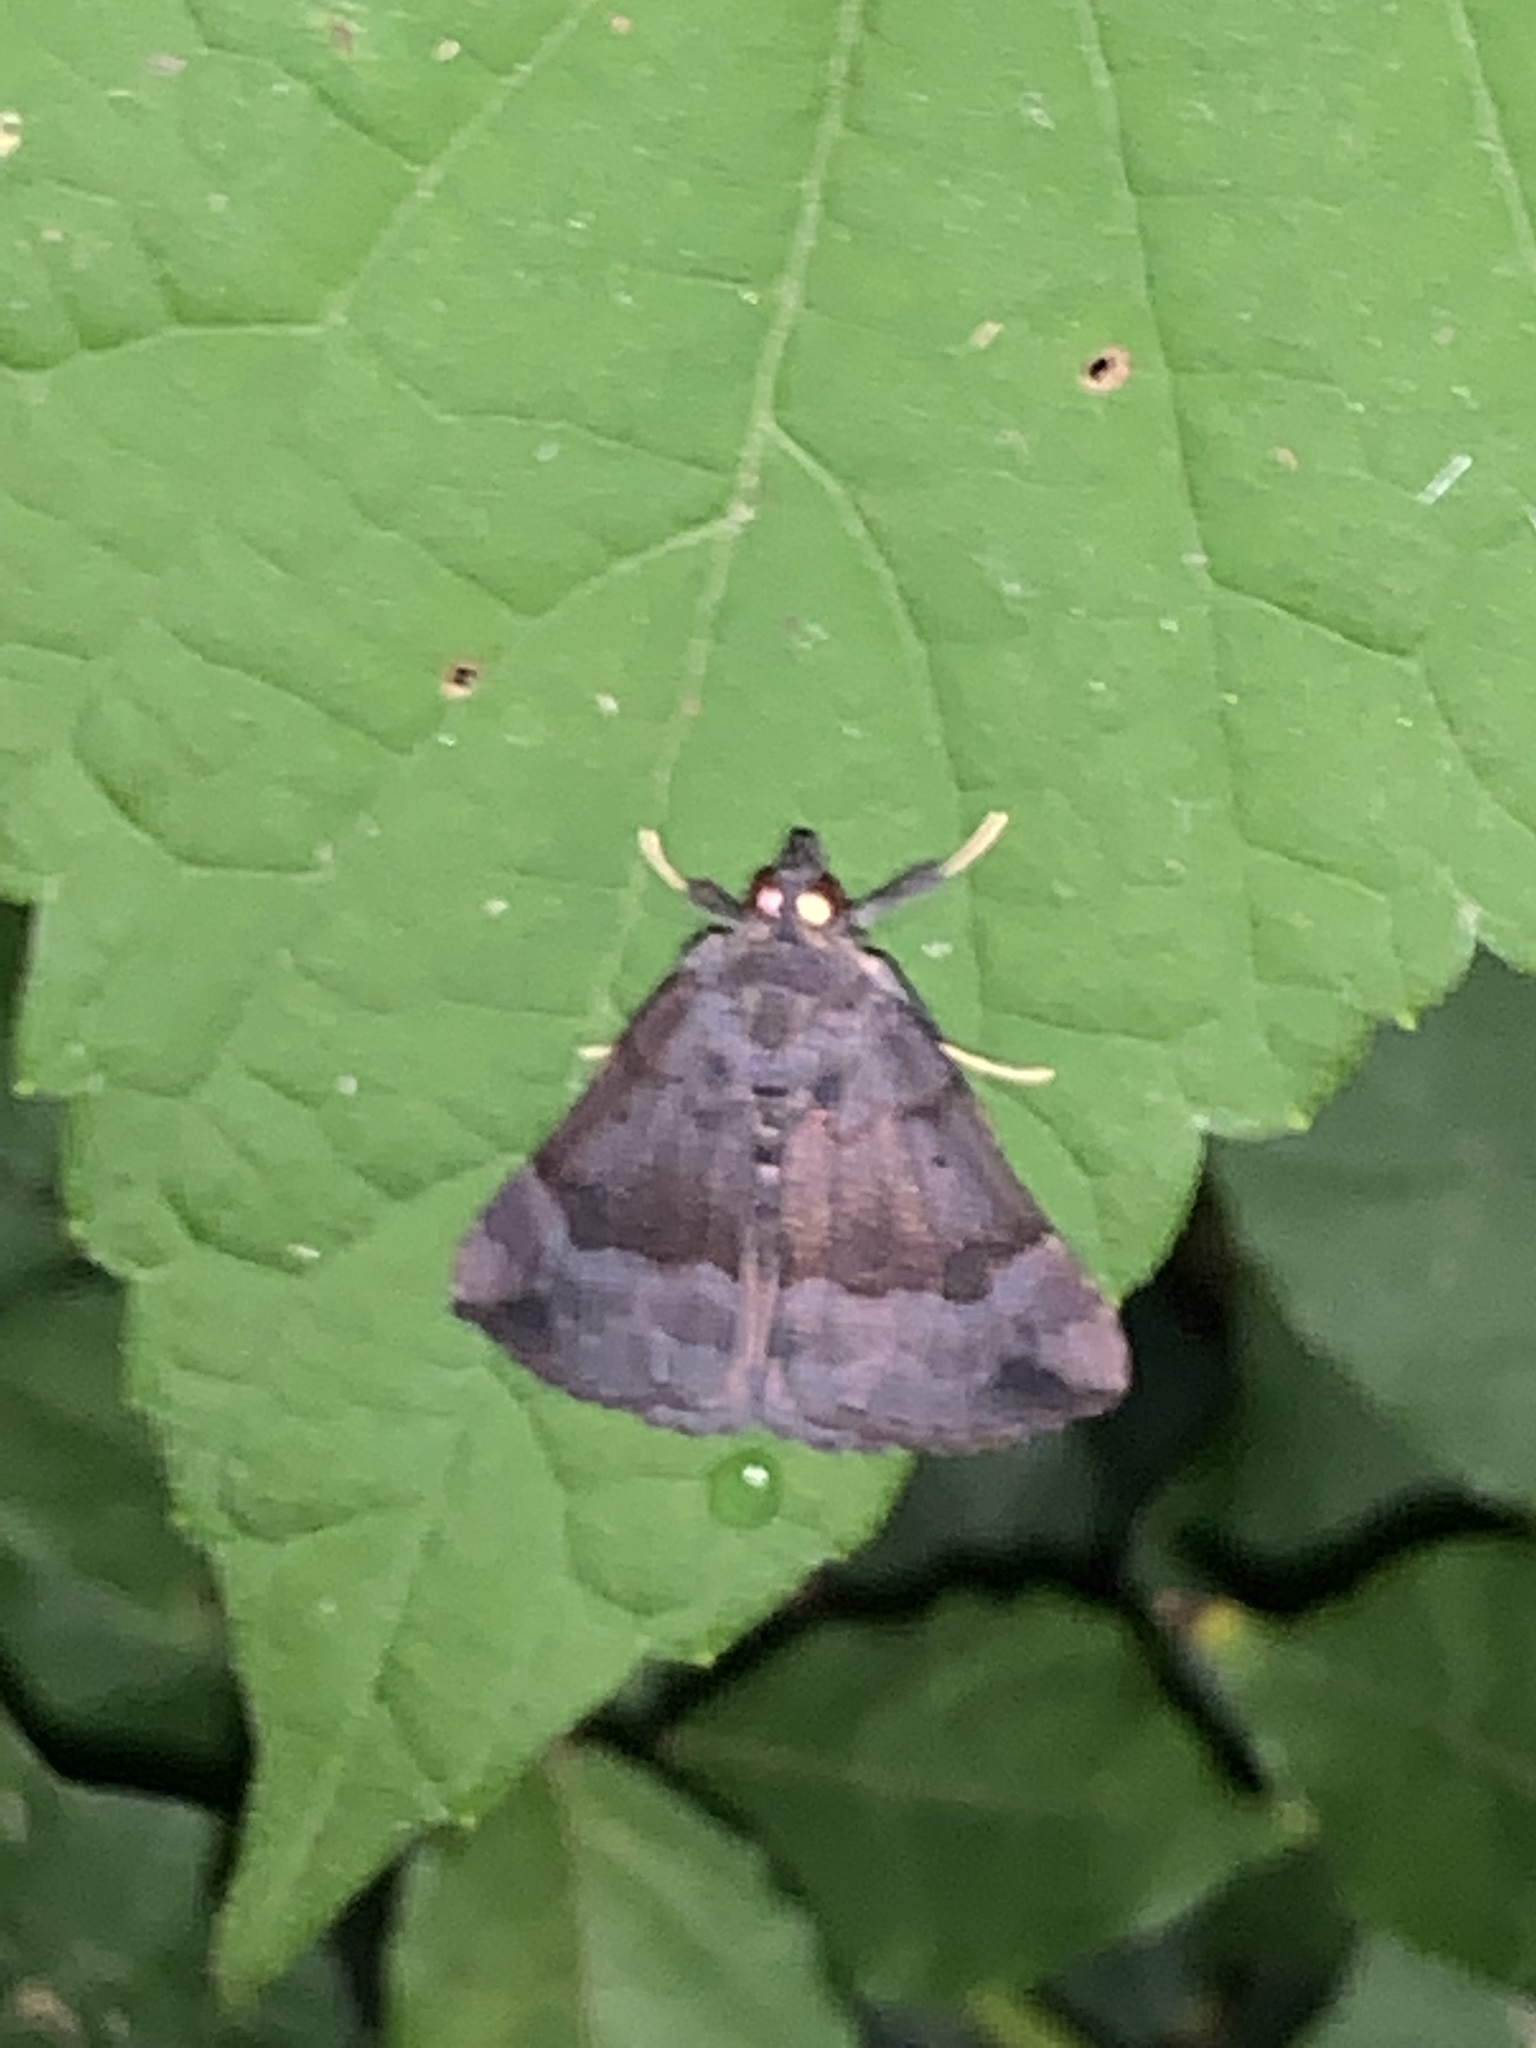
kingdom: Animalia
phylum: Arthropoda
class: Insecta
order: Lepidoptera
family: Erebidae
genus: Hypena
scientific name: Hypena madefactalis
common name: Gray-edged snout
